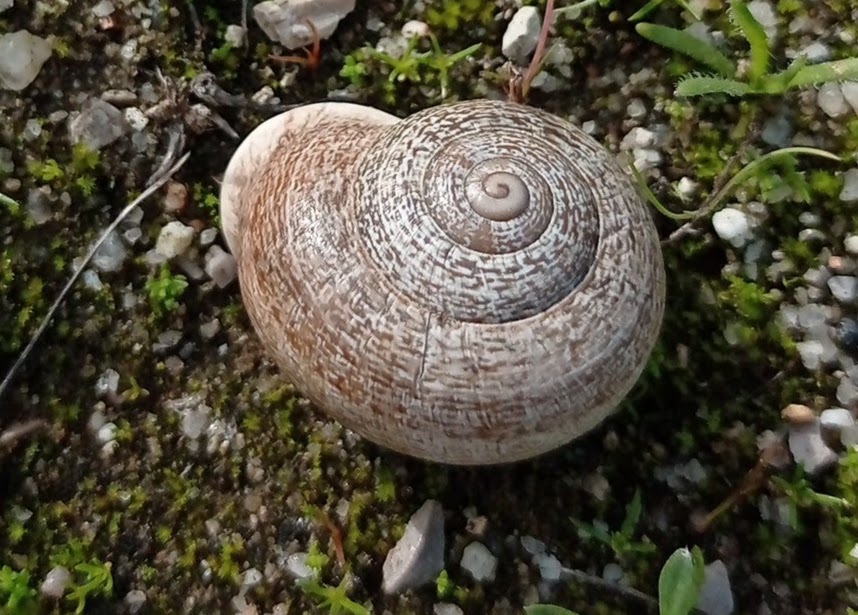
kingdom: Animalia
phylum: Mollusca
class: Gastropoda
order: Stylommatophora
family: Helicidae
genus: Otala
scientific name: Otala lactea
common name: Milk snail
